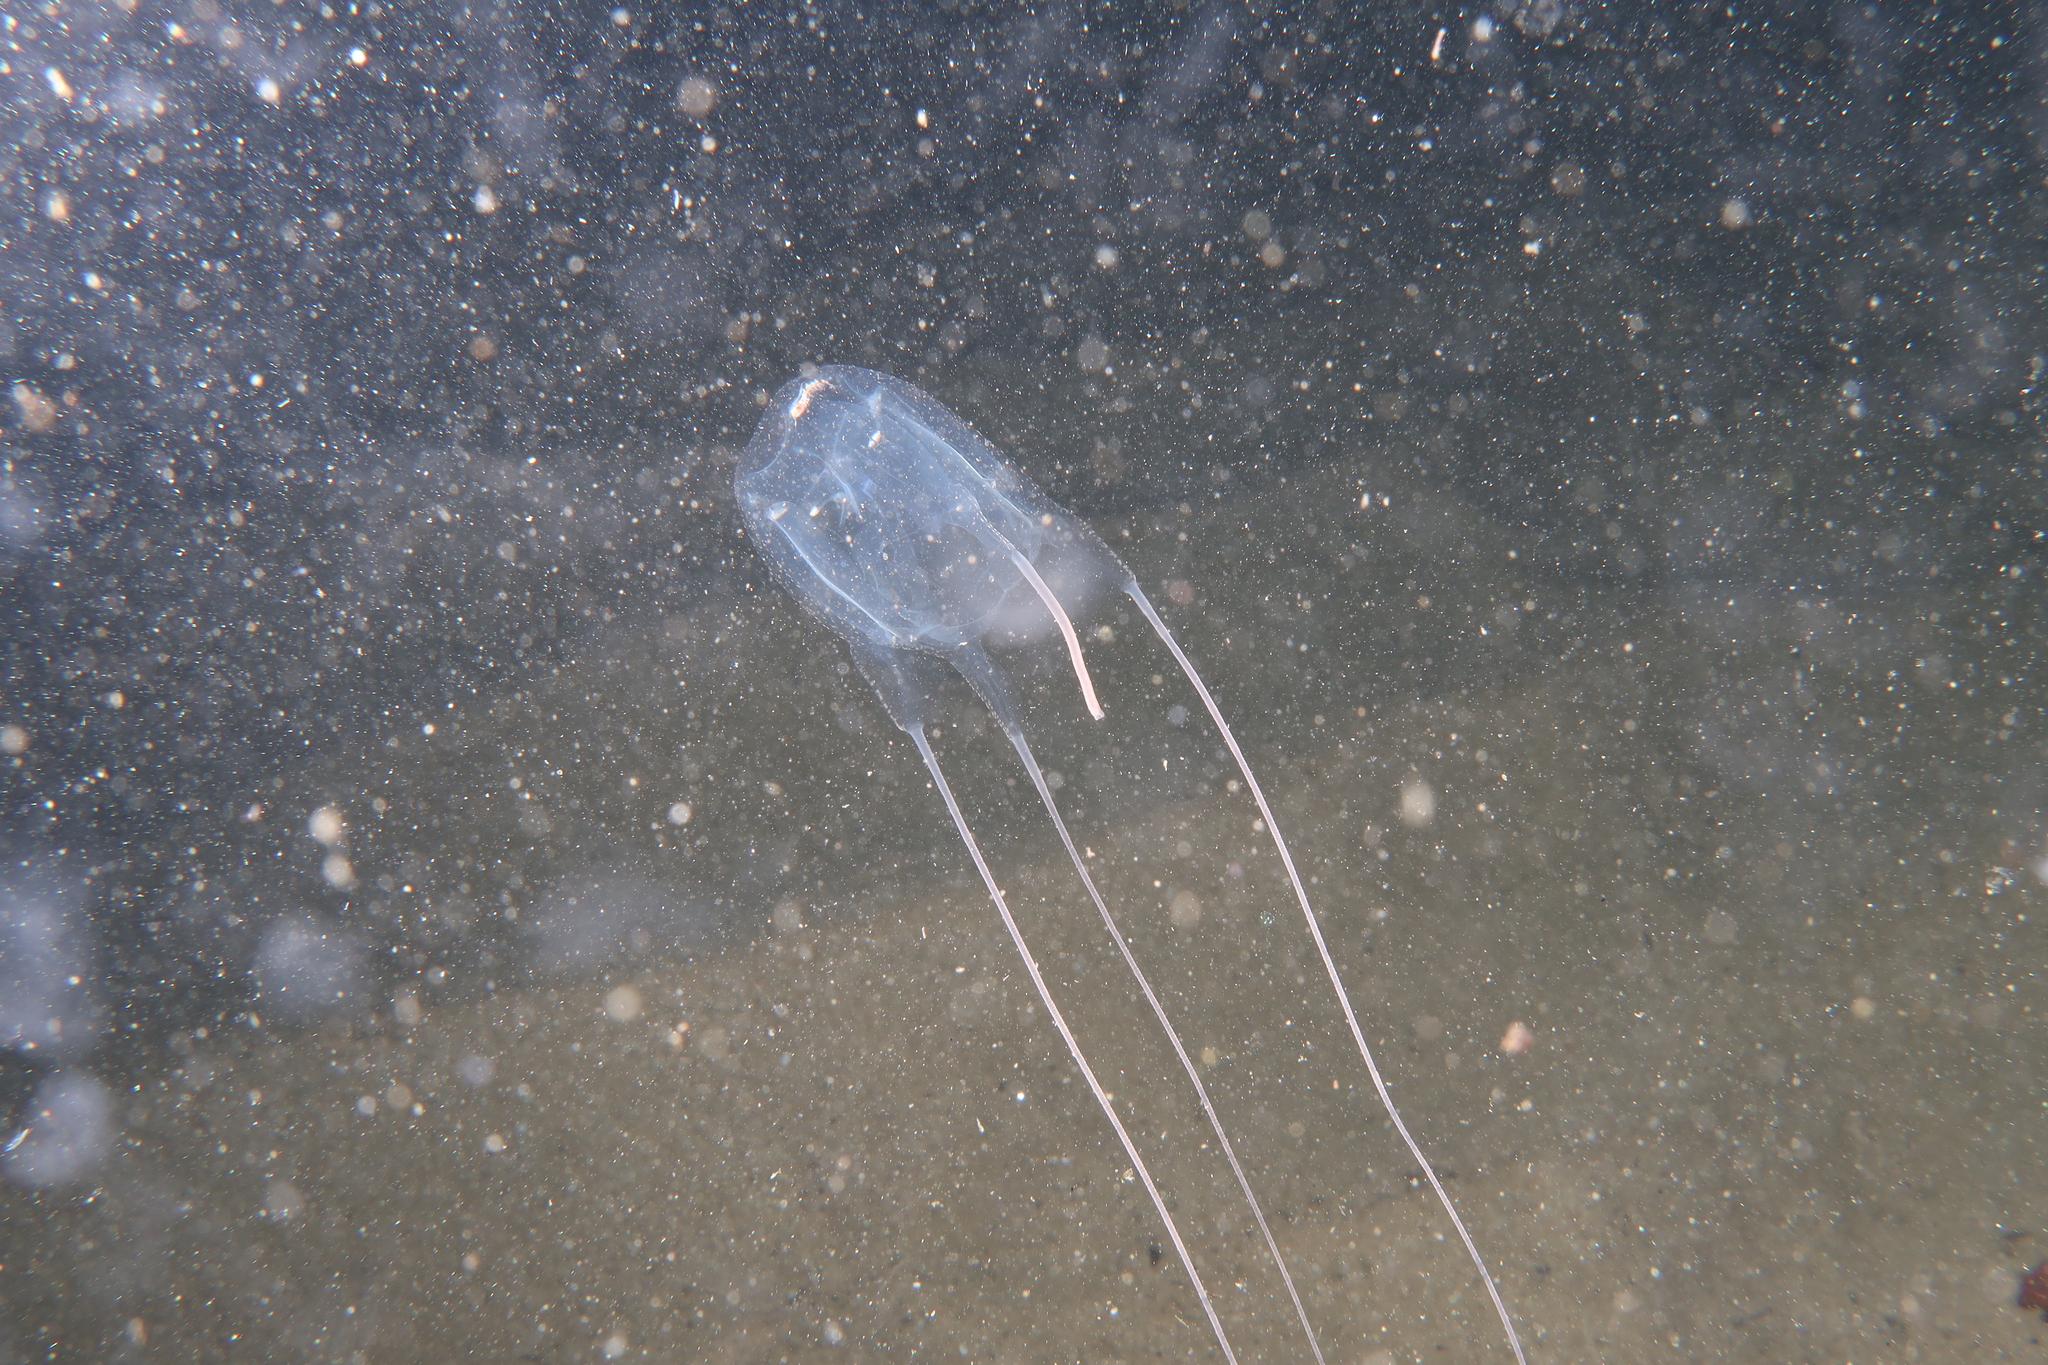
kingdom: Animalia
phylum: Cnidaria
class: Cubozoa
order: Carybdeida
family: Carybdeidae
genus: Carybdea
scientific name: Carybdea marsupialis
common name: Sea wasp
